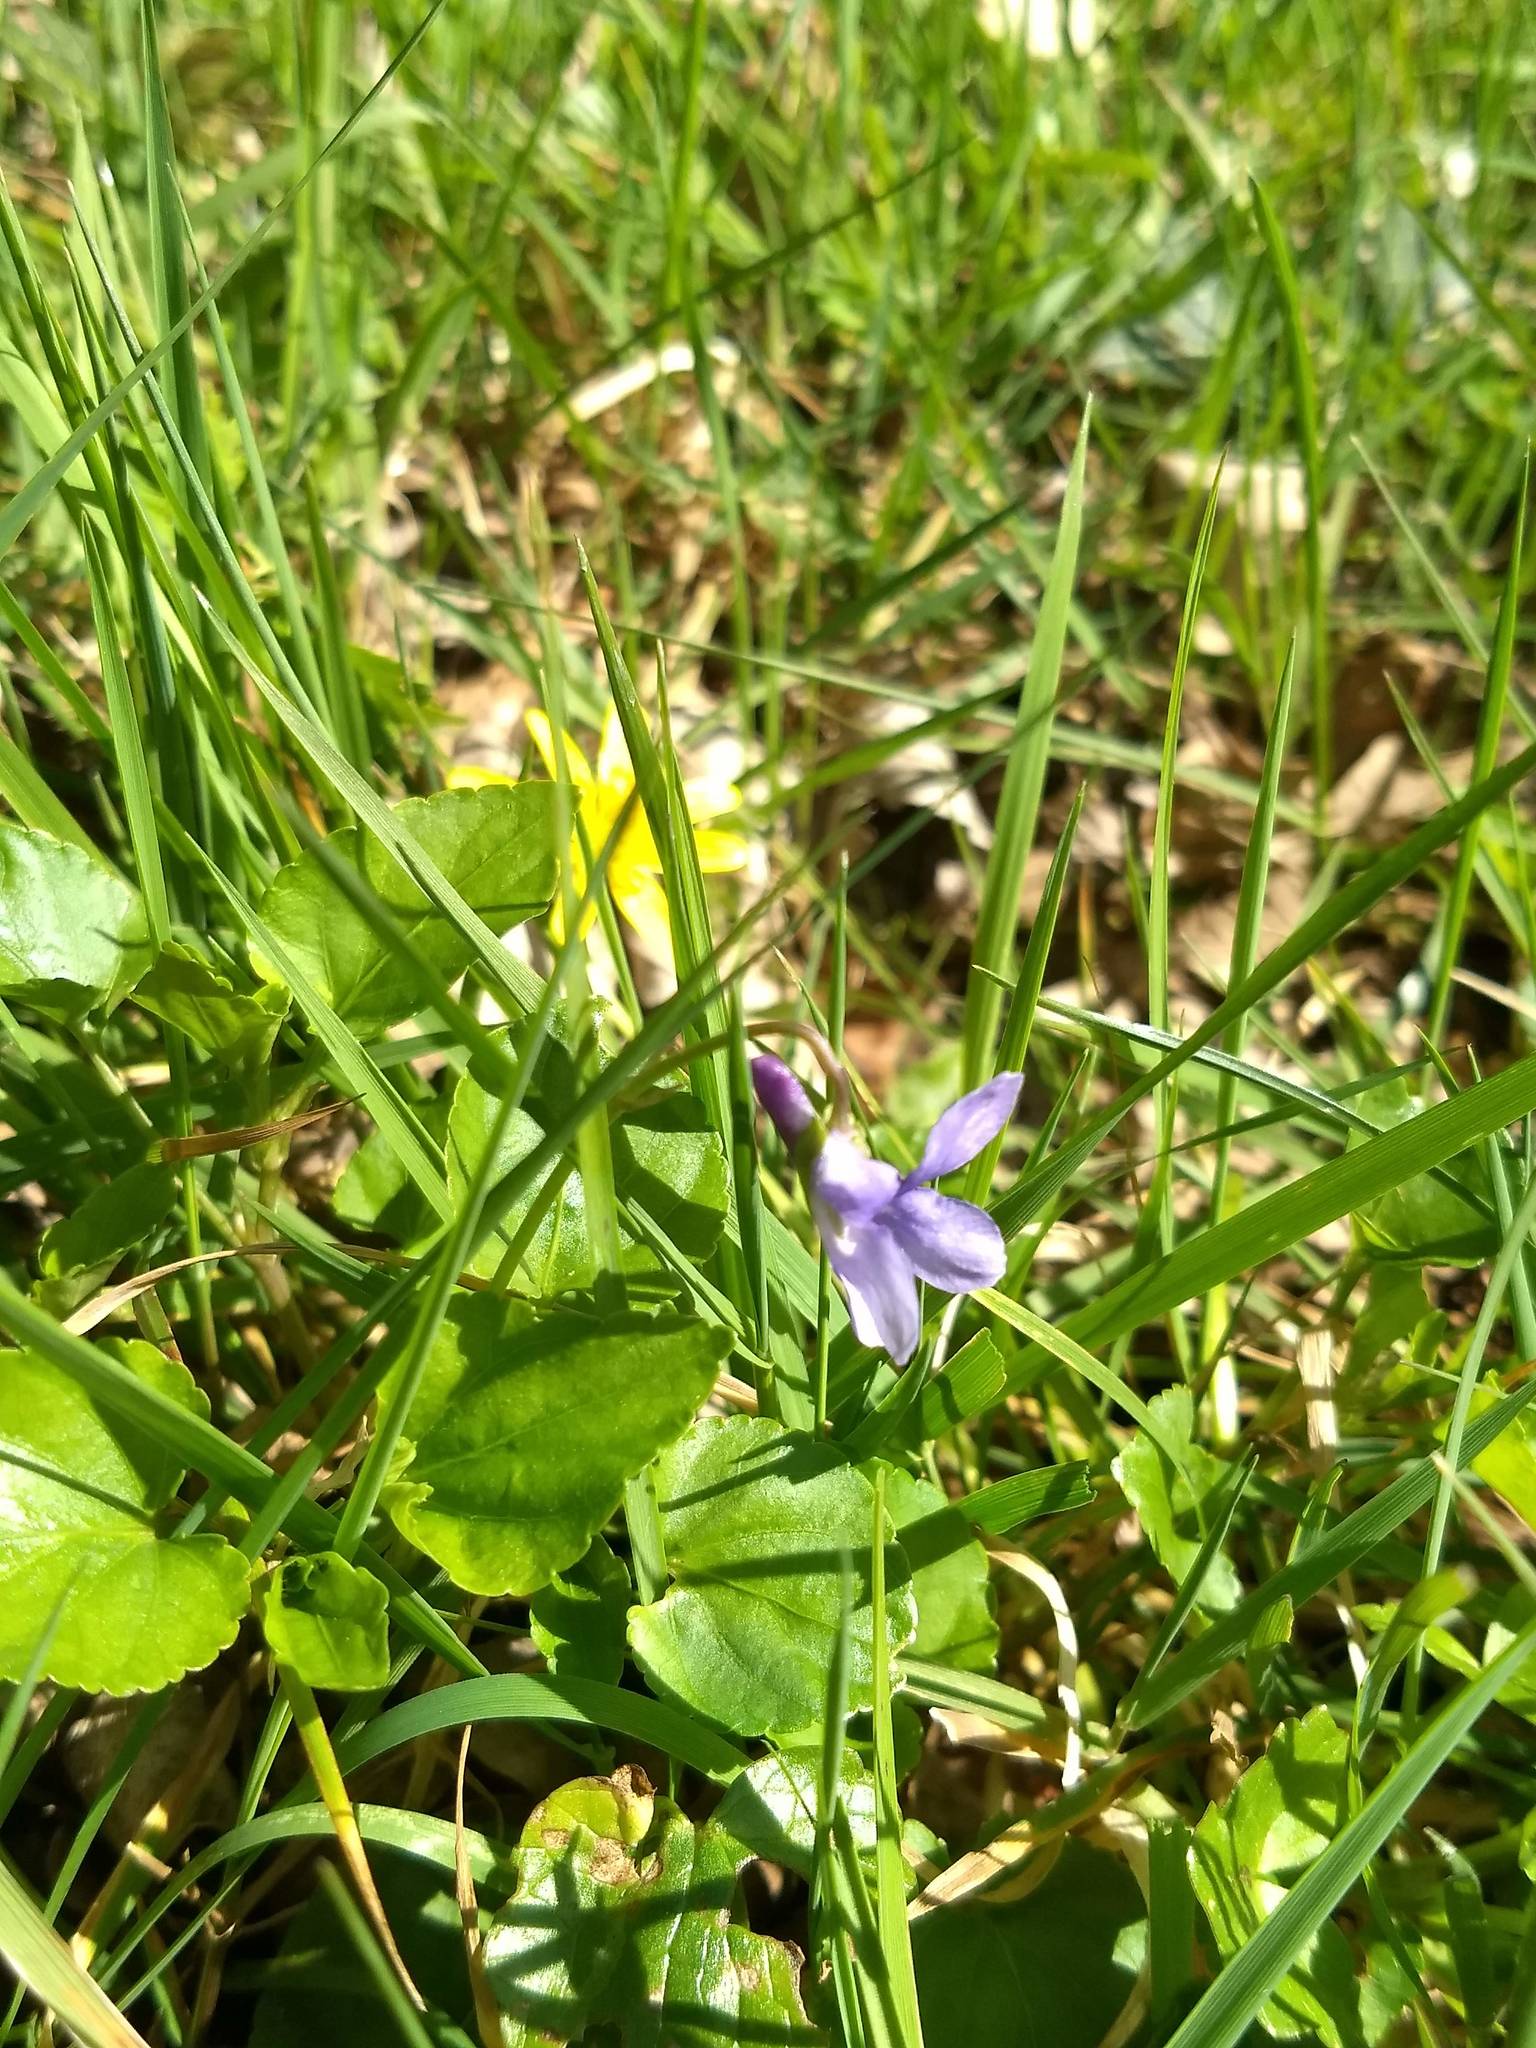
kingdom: Plantae
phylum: Tracheophyta
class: Magnoliopsida
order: Malpighiales
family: Violaceae
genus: Viola
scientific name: Viola reichenbachiana
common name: Early dog-violet
